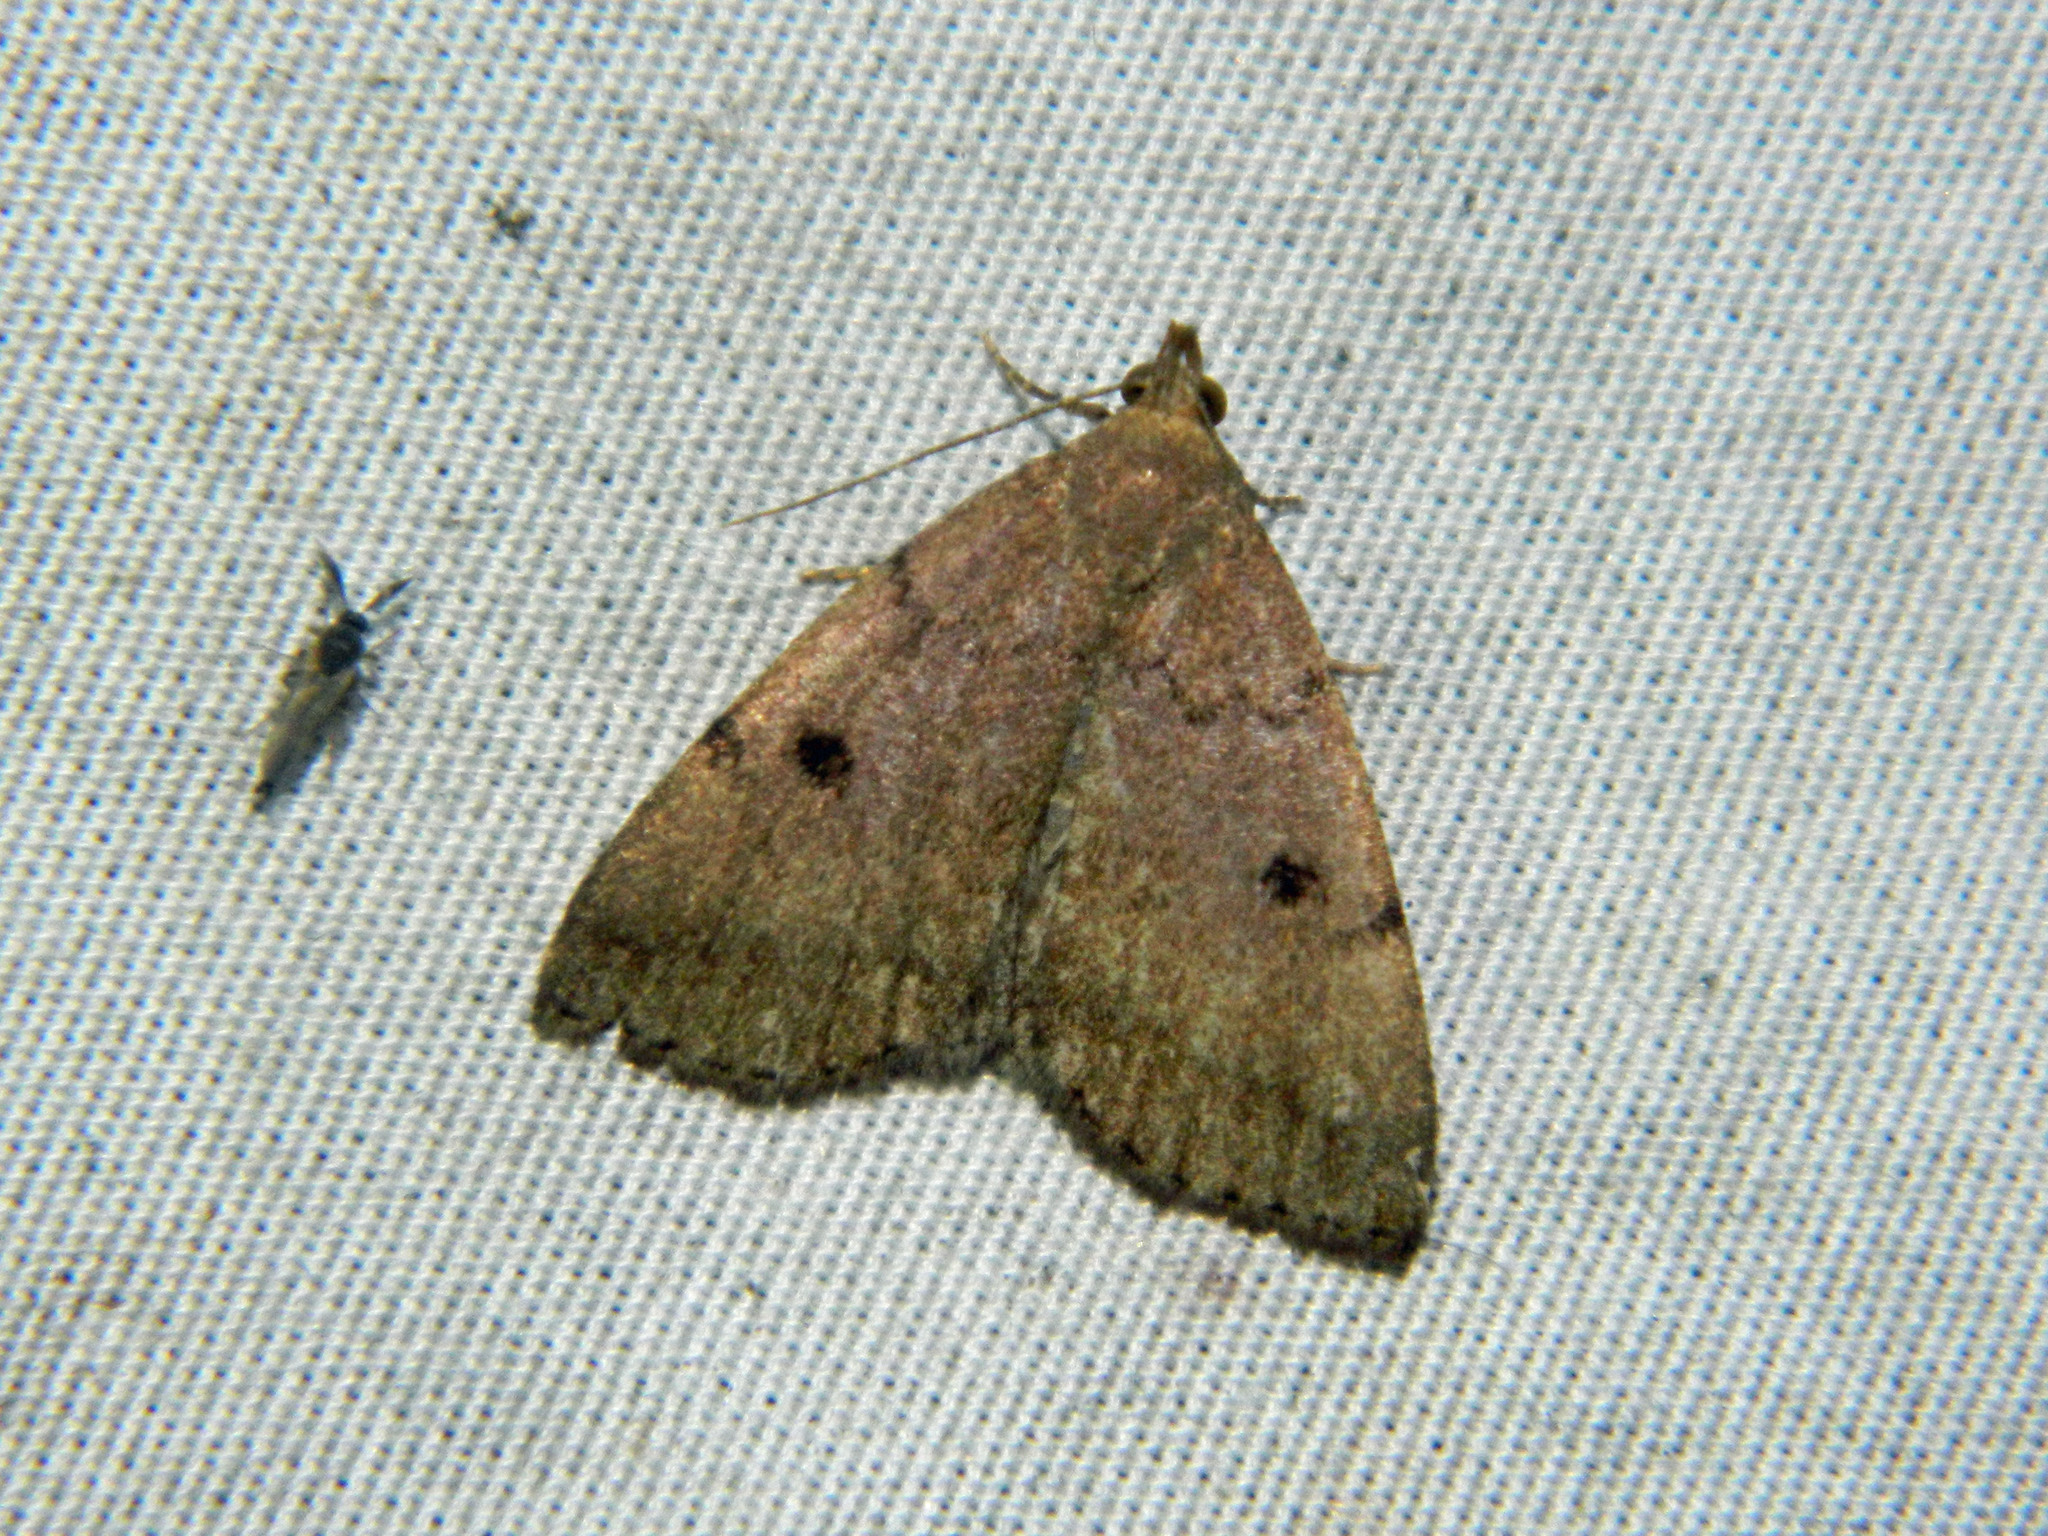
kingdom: Animalia
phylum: Arthropoda
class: Insecta
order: Lepidoptera
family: Erebidae
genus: Zanclognatha
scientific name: Zanclognatha dentata
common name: Toothed fan-foot
